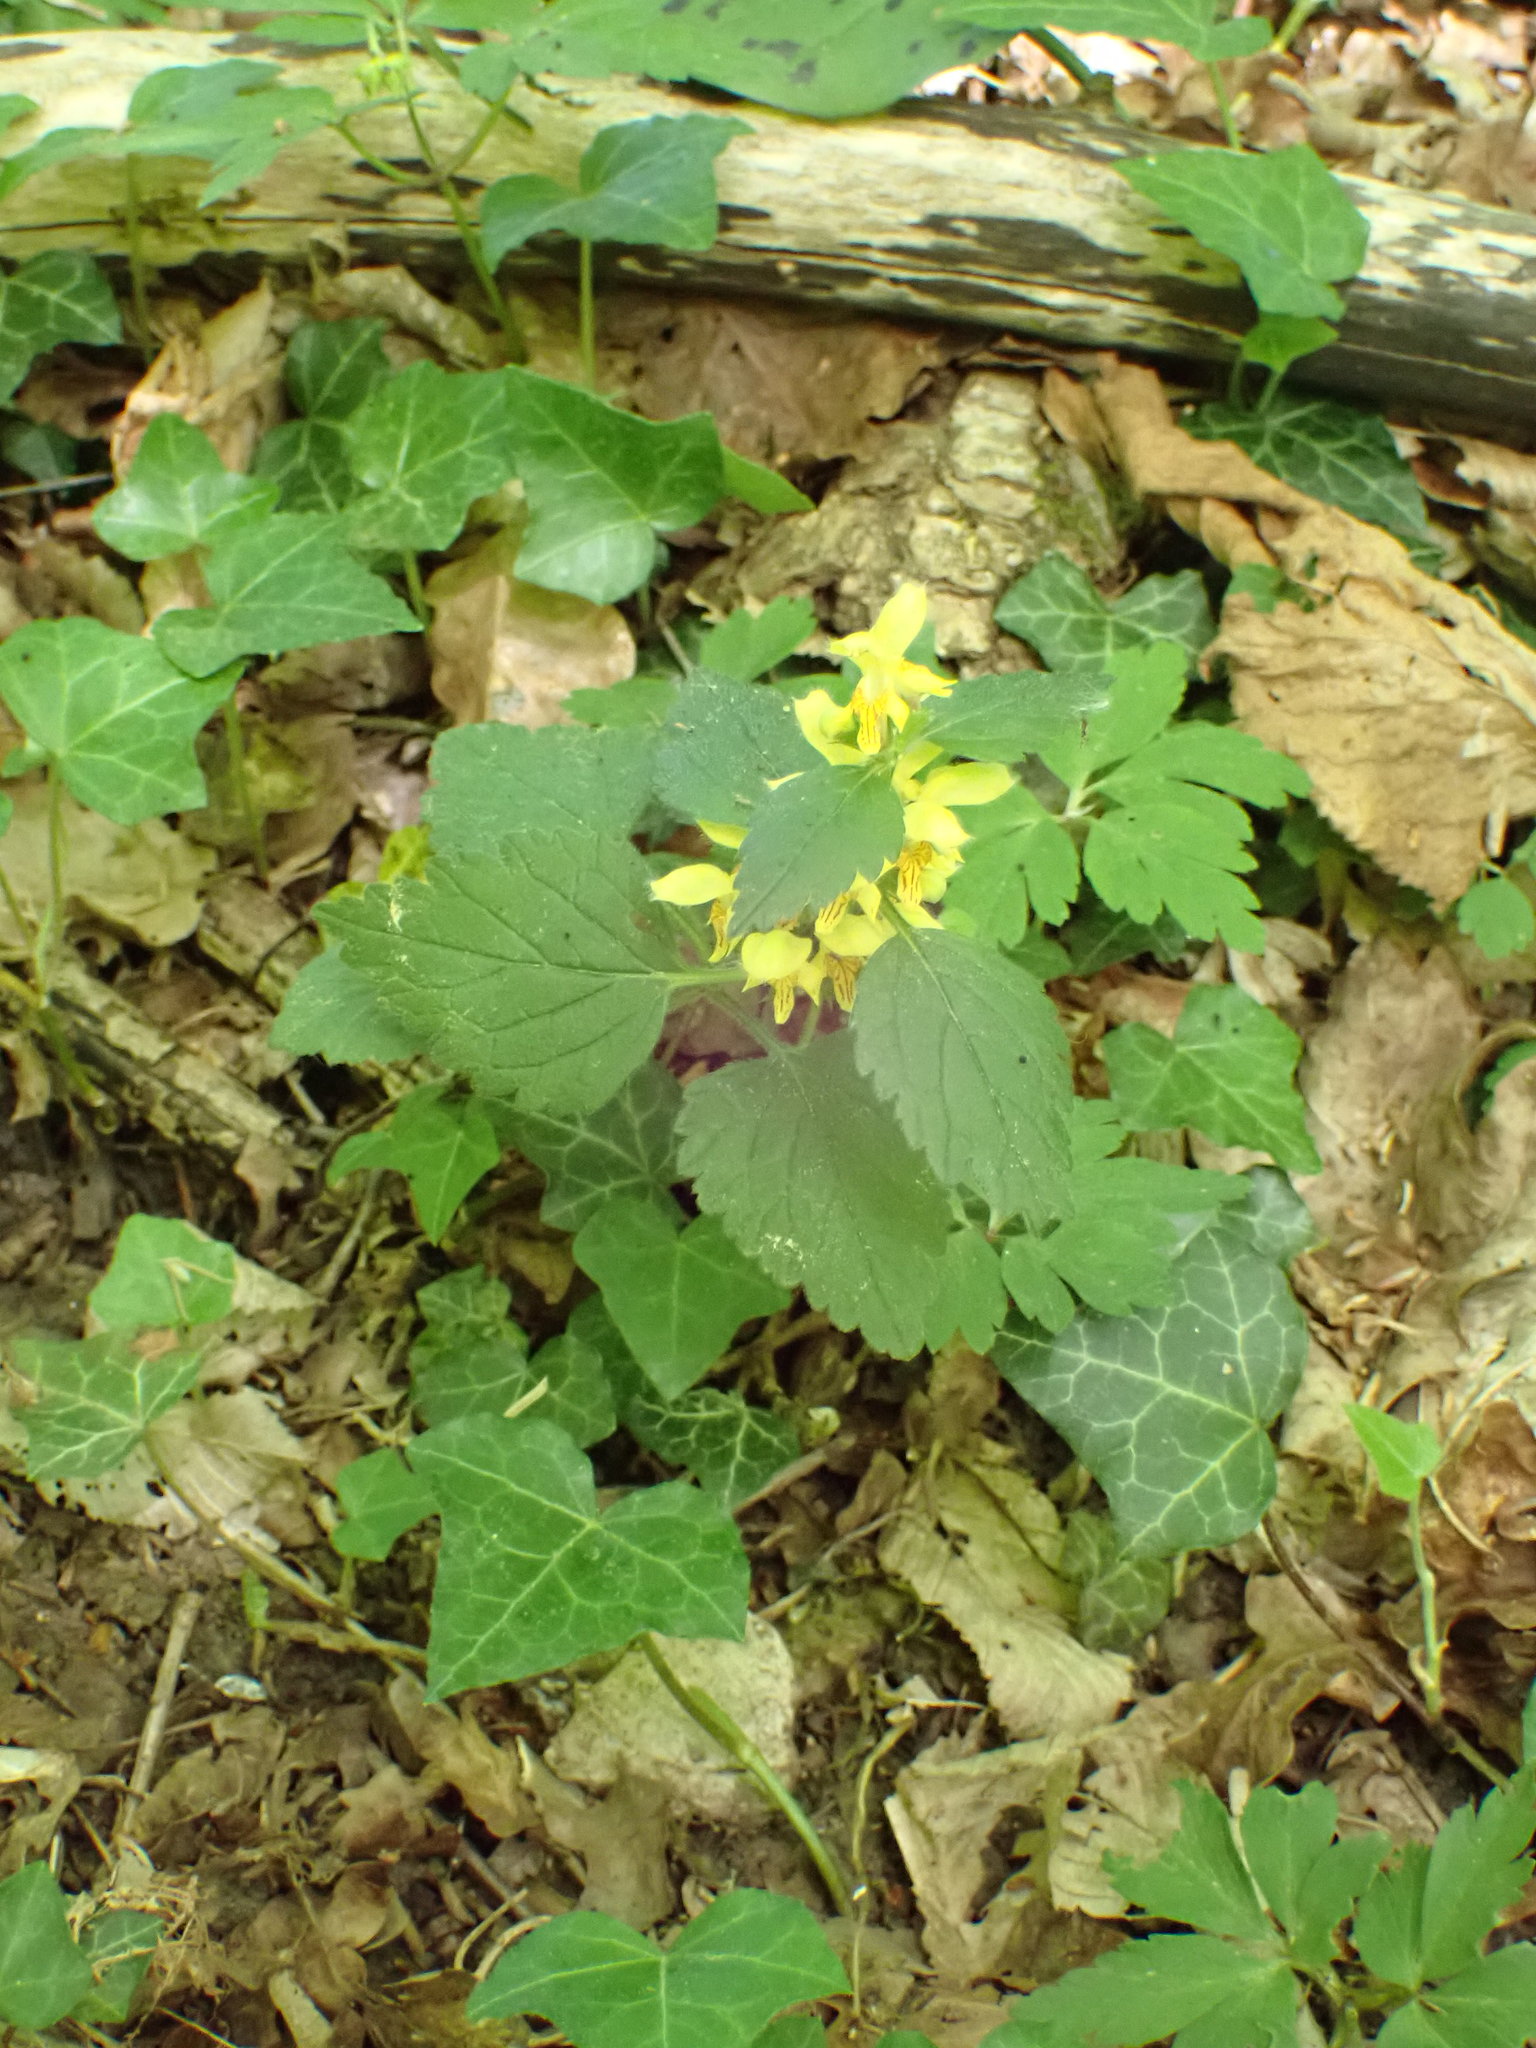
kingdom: Plantae
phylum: Tracheophyta
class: Magnoliopsida
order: Lamiales
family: Lamiaceae
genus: Lamium
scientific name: Lamium galeobdolon
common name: Yellow archangel
